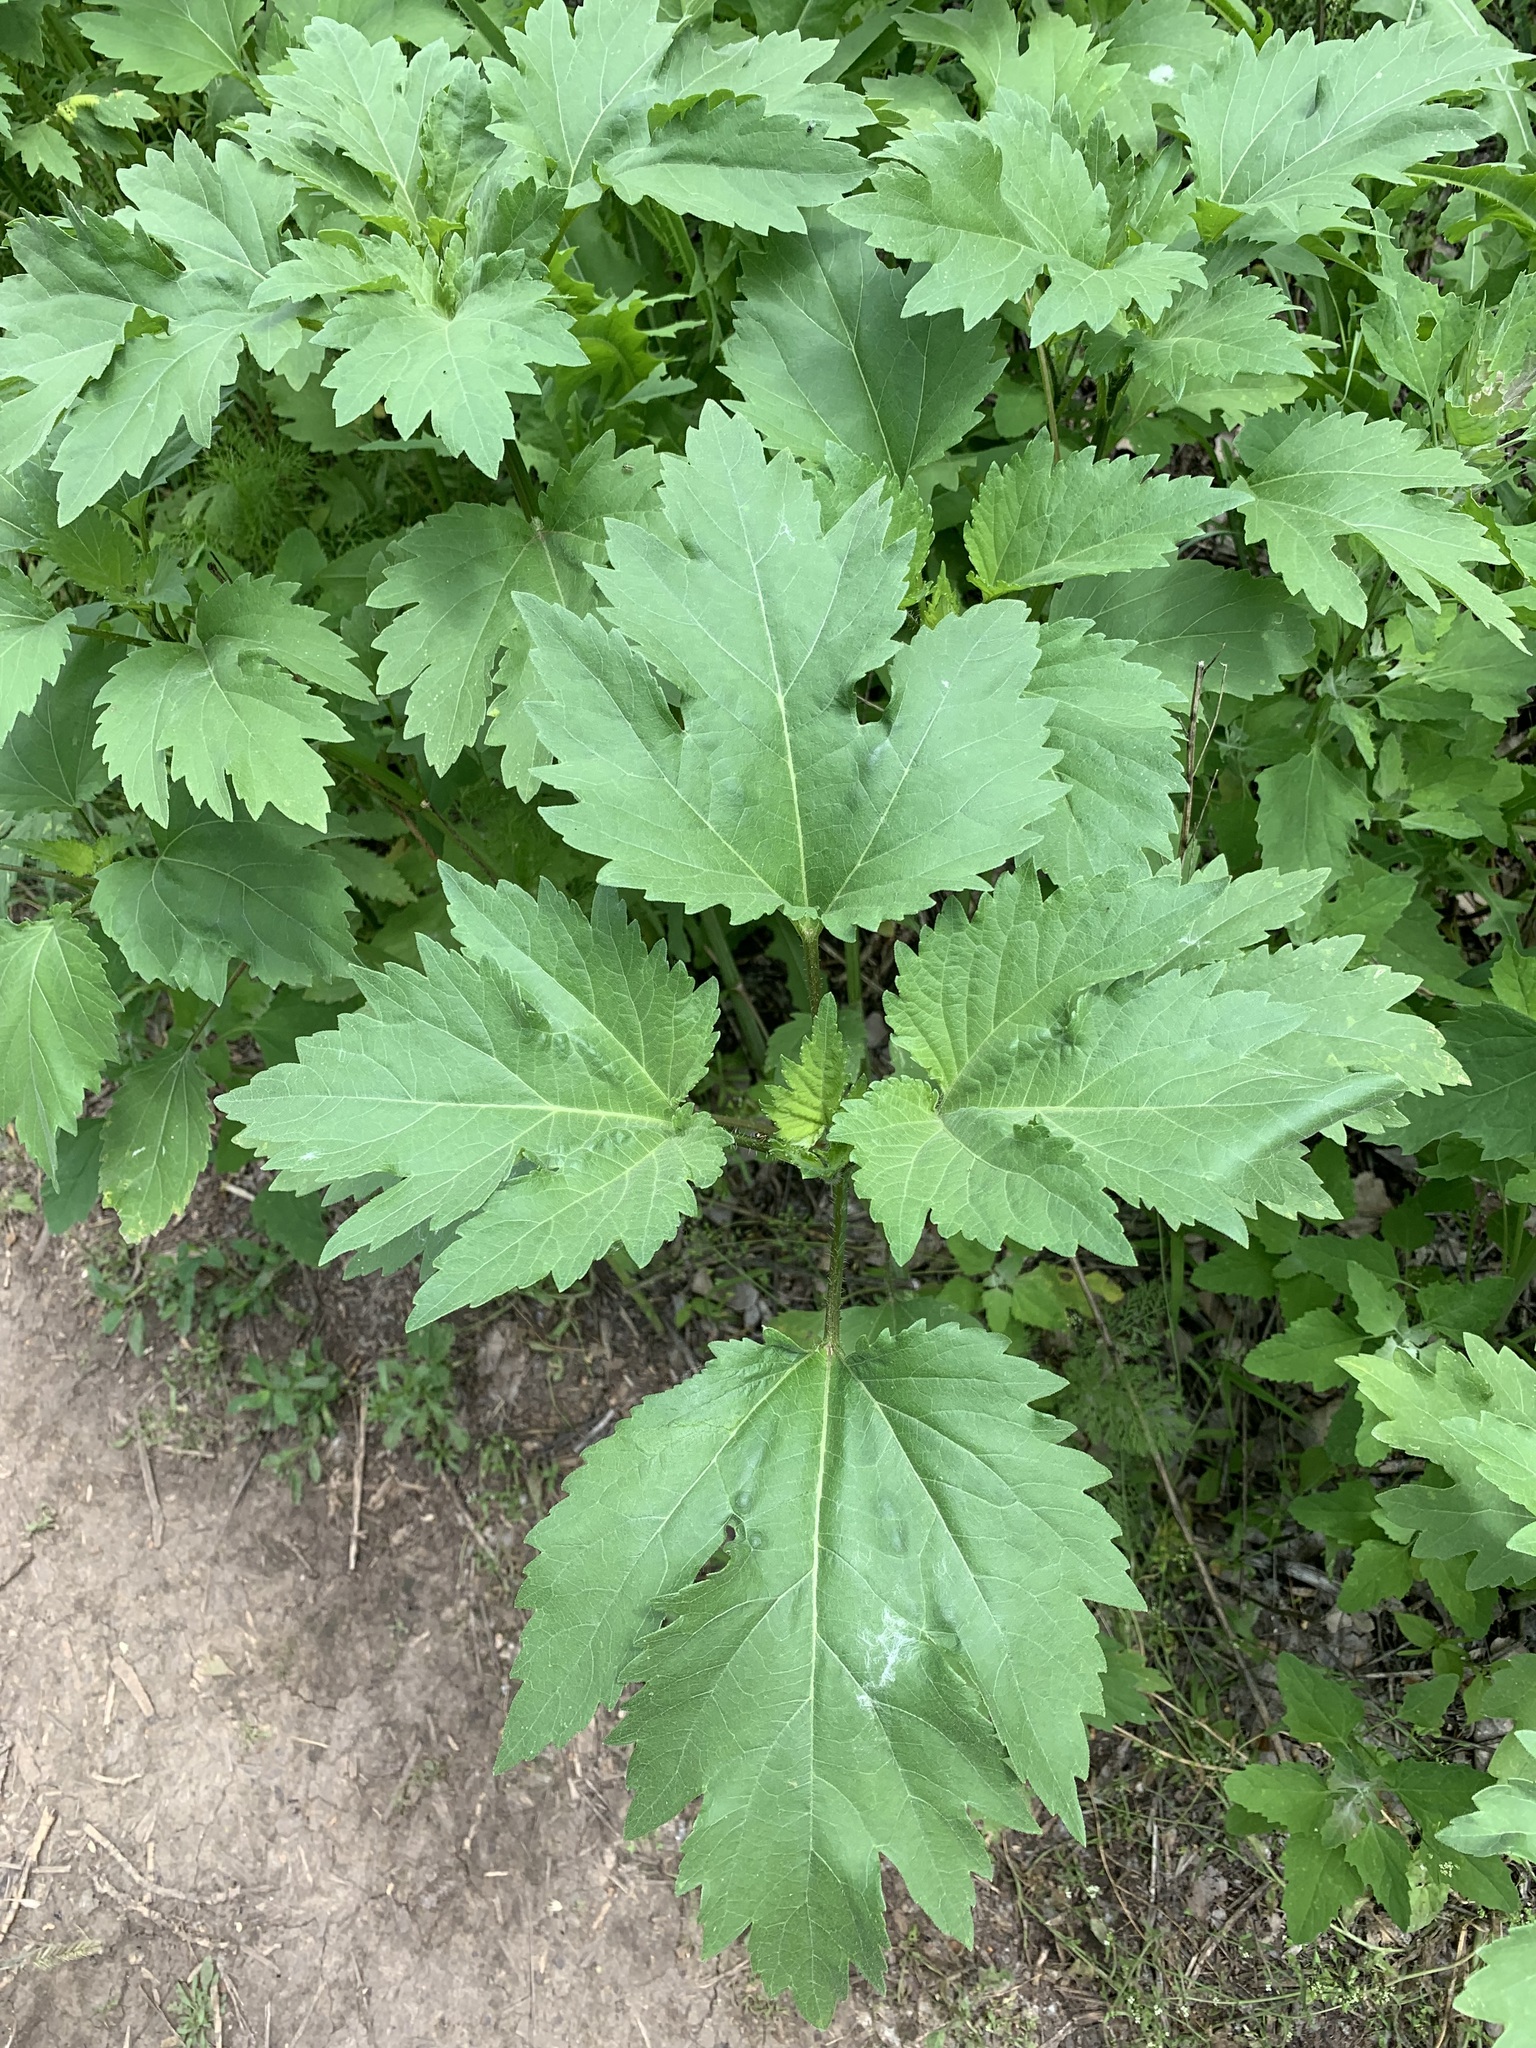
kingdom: Plantae
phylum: Tracheophyta
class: Magnoliopsida
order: Asterales
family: Asteraceae
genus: Cyclachaena
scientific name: Cyclachaena xanthiifolia
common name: Giant sumpweed
